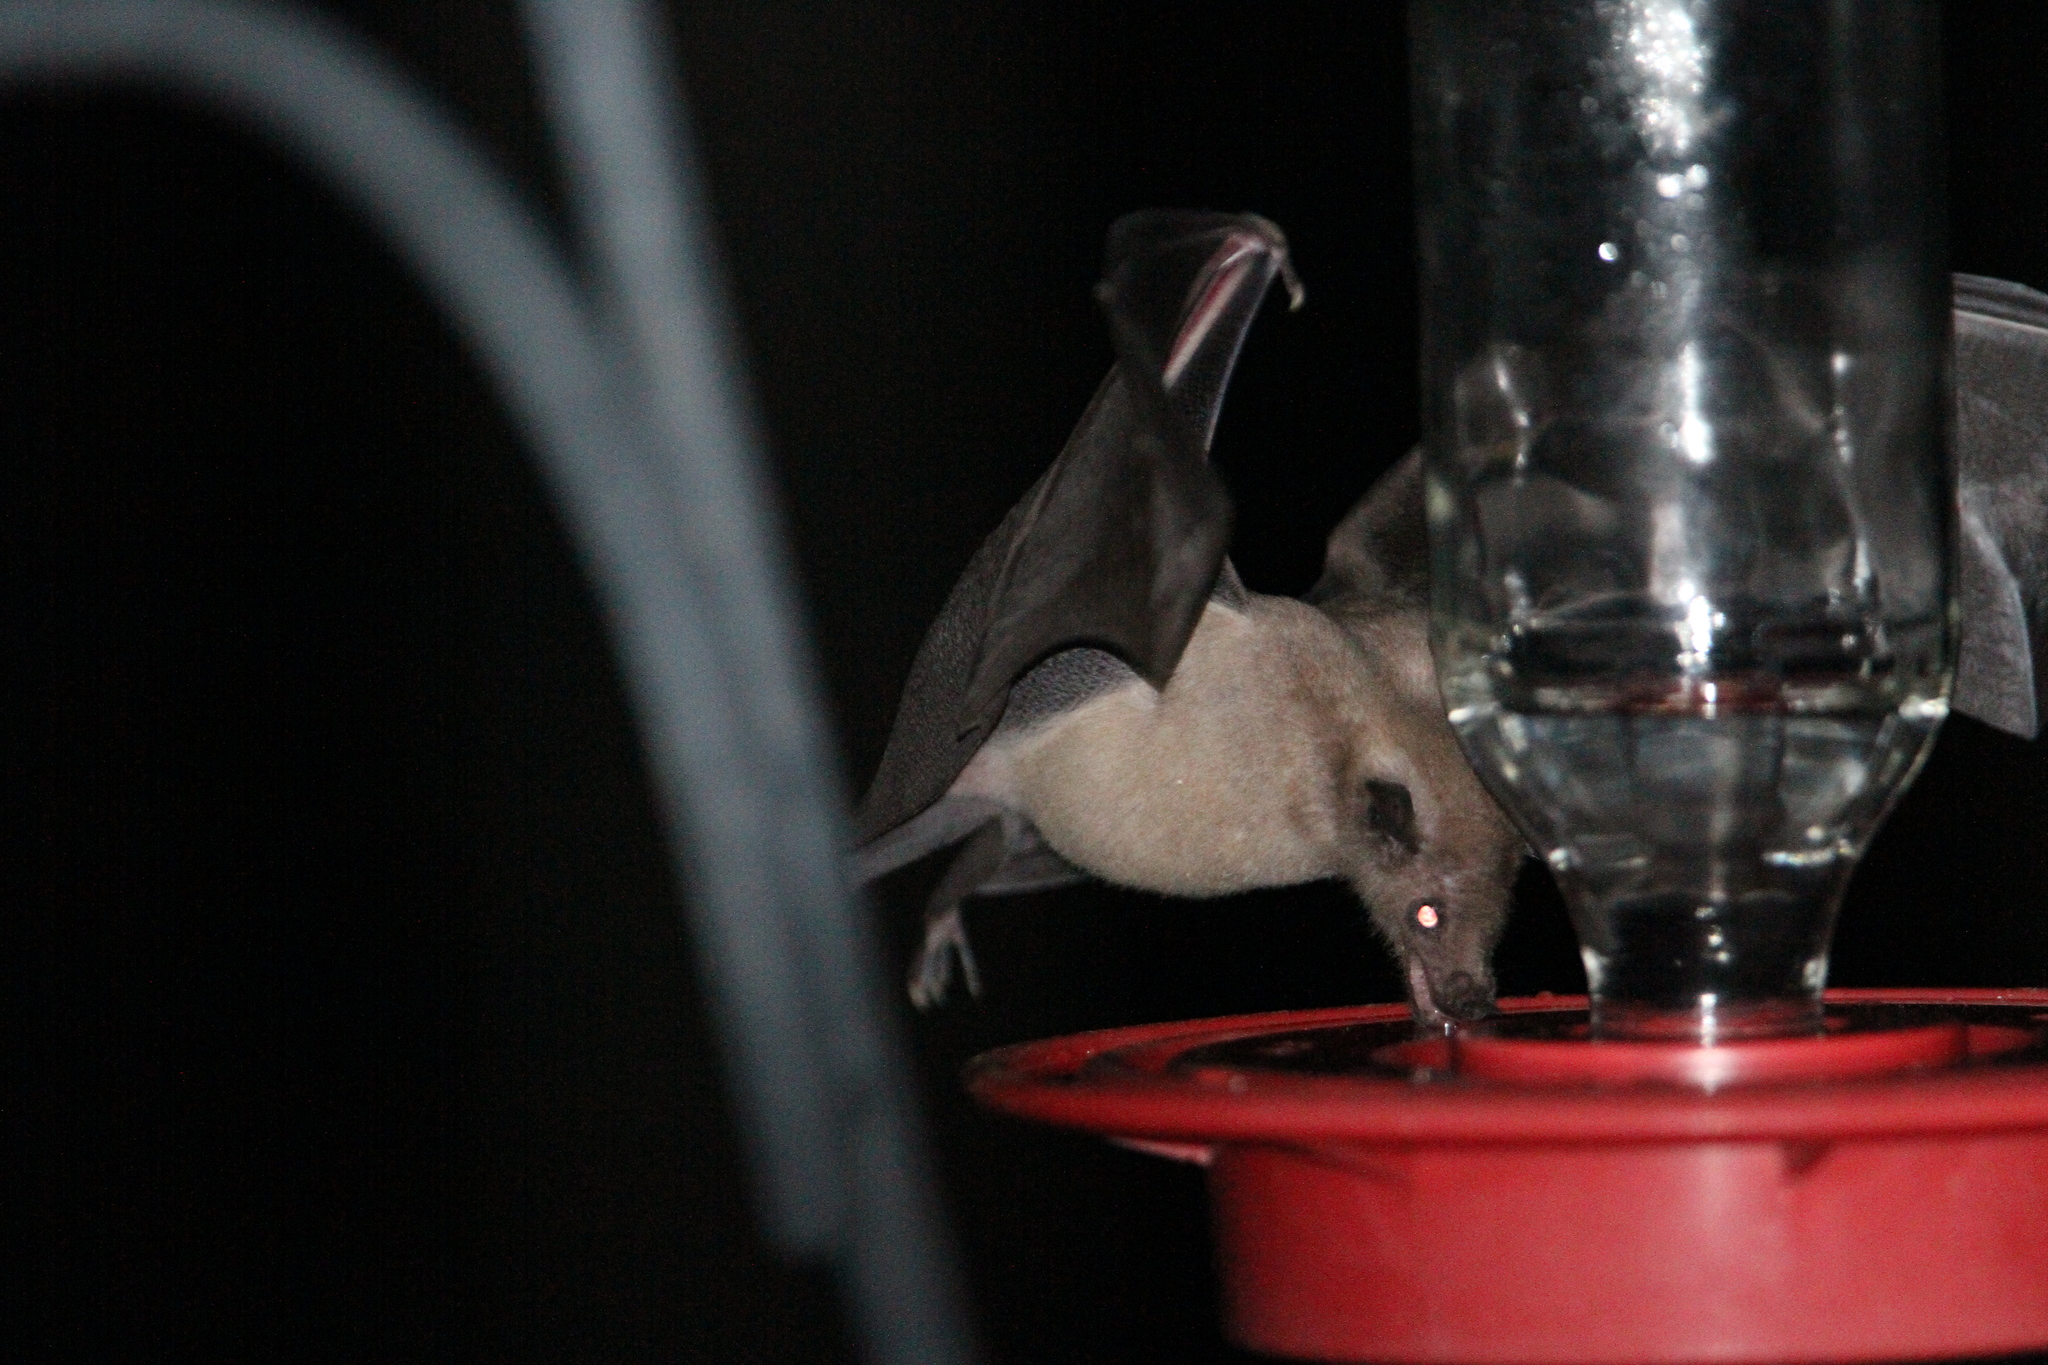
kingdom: Animalia
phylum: Chordata
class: Mammalia
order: Chiroptera
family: Phyllostomidae
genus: Leptonycteris
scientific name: Leptonycteris yerbabuenae
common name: Lesser long-nosed bat
